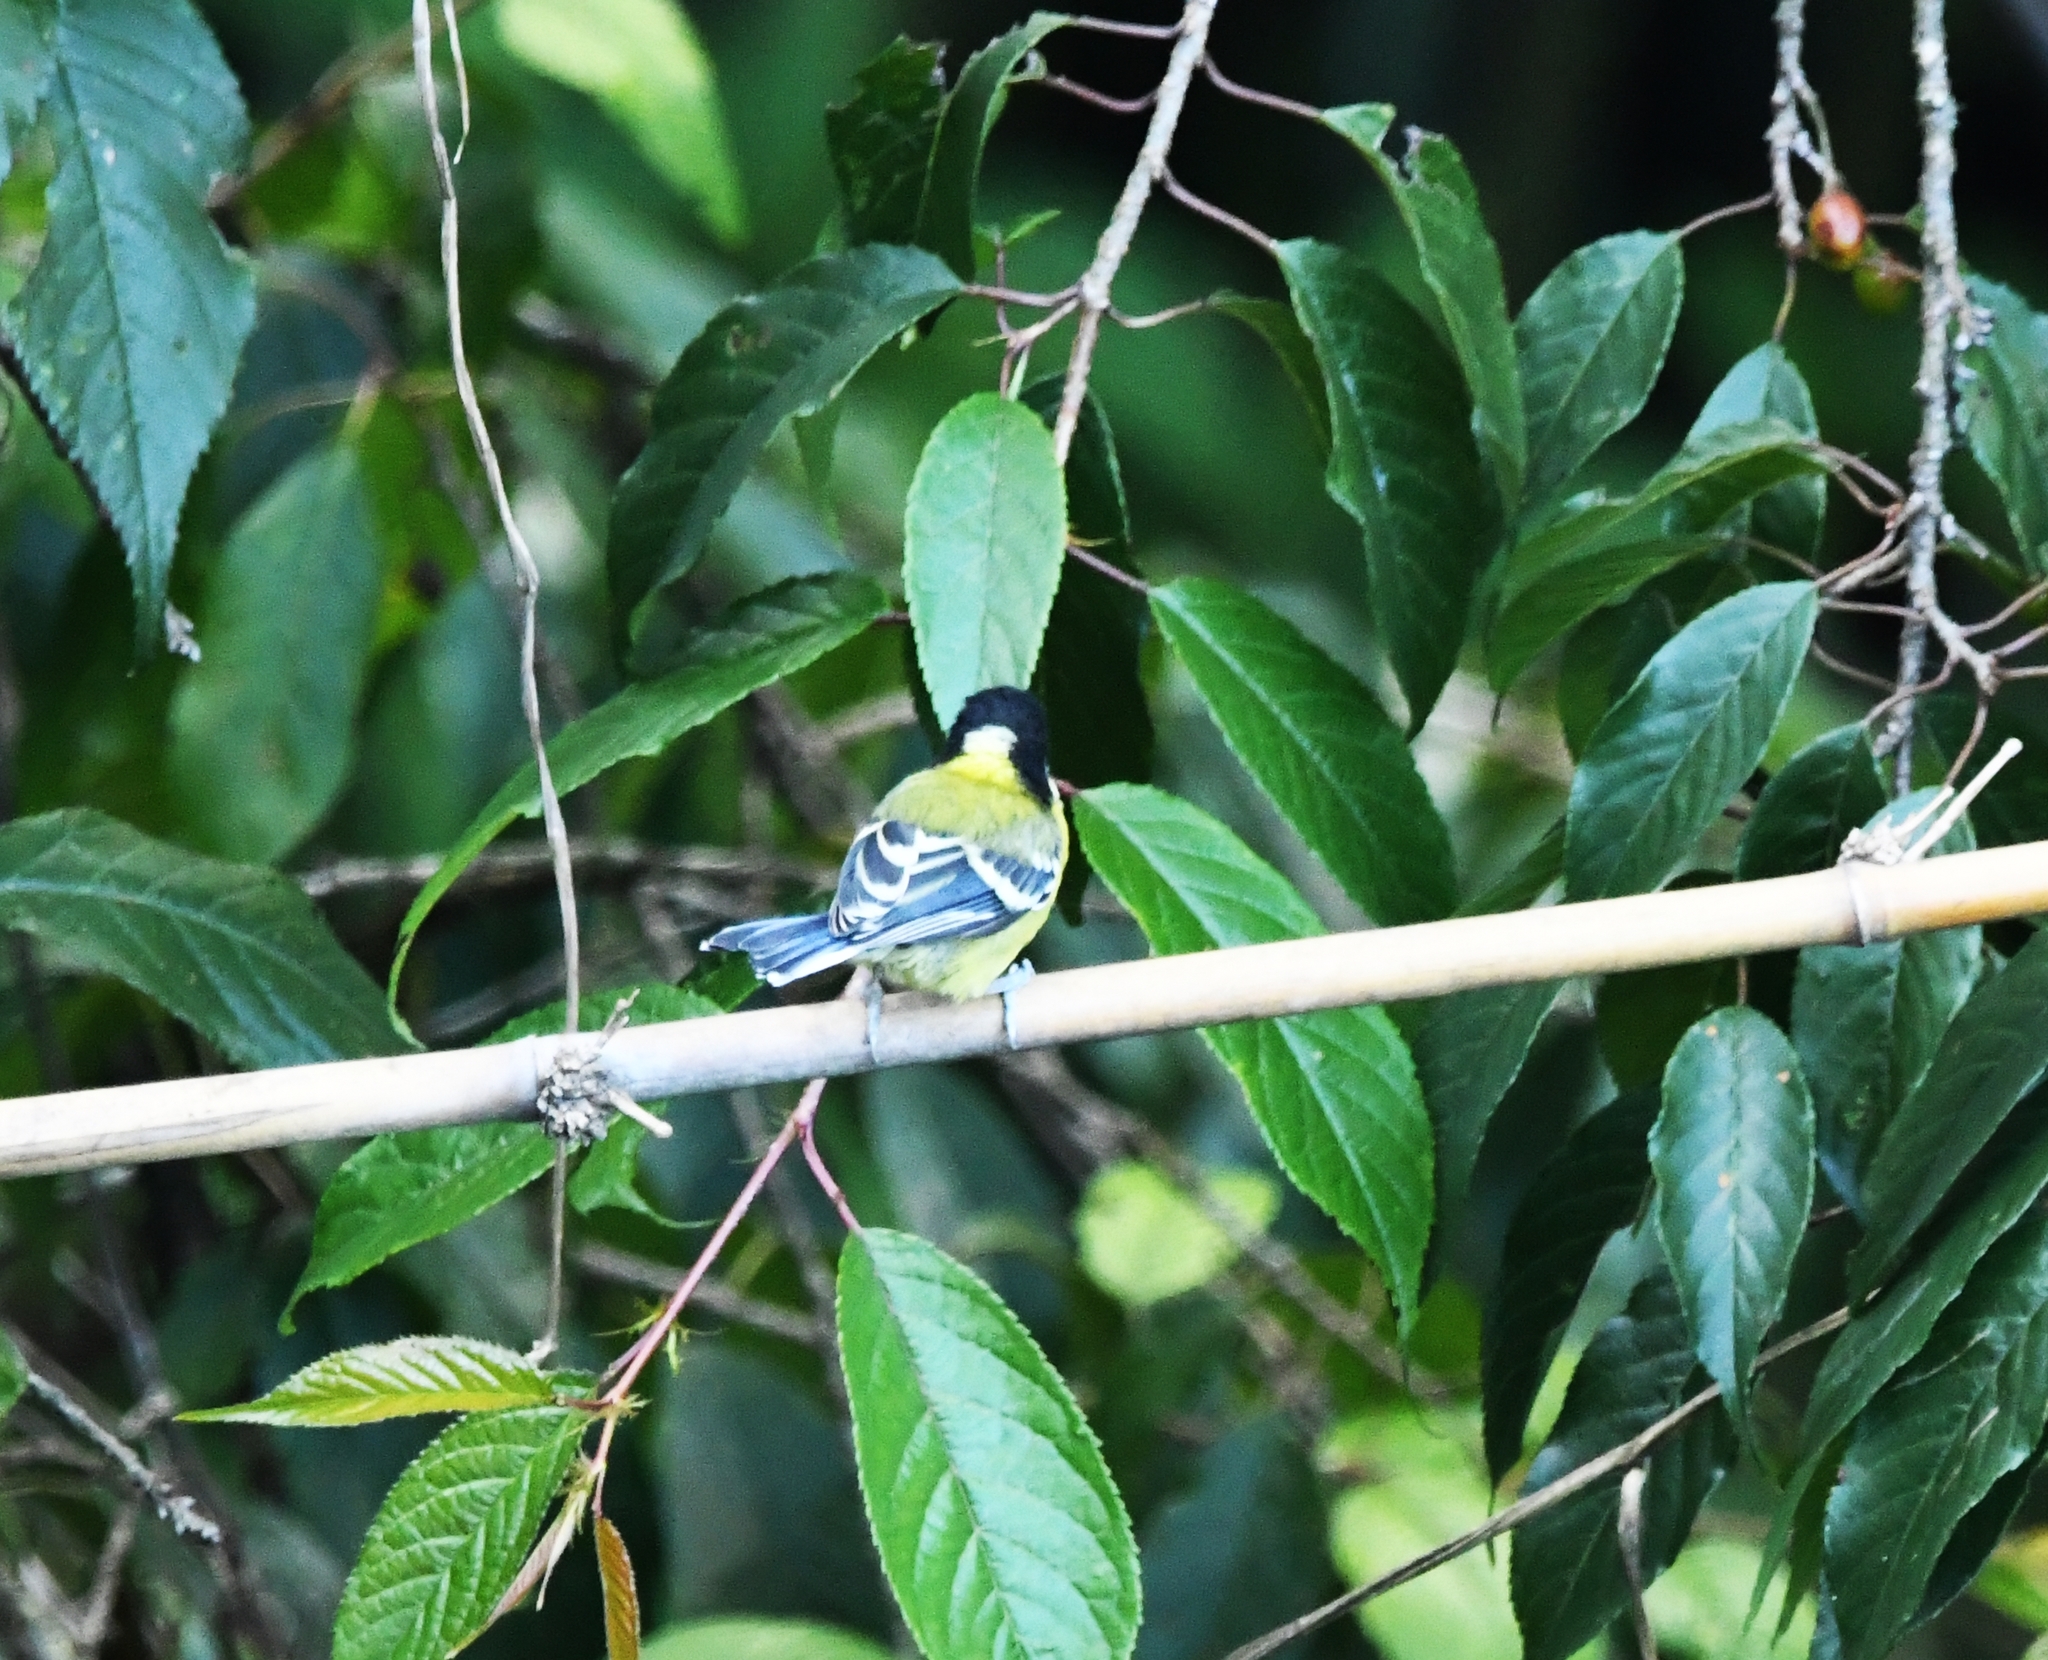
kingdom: Animalia
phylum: Chordata
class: Aves
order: Passeriformes
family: Paridae
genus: Parus
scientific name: Parus monticolus
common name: Green-backed tit
